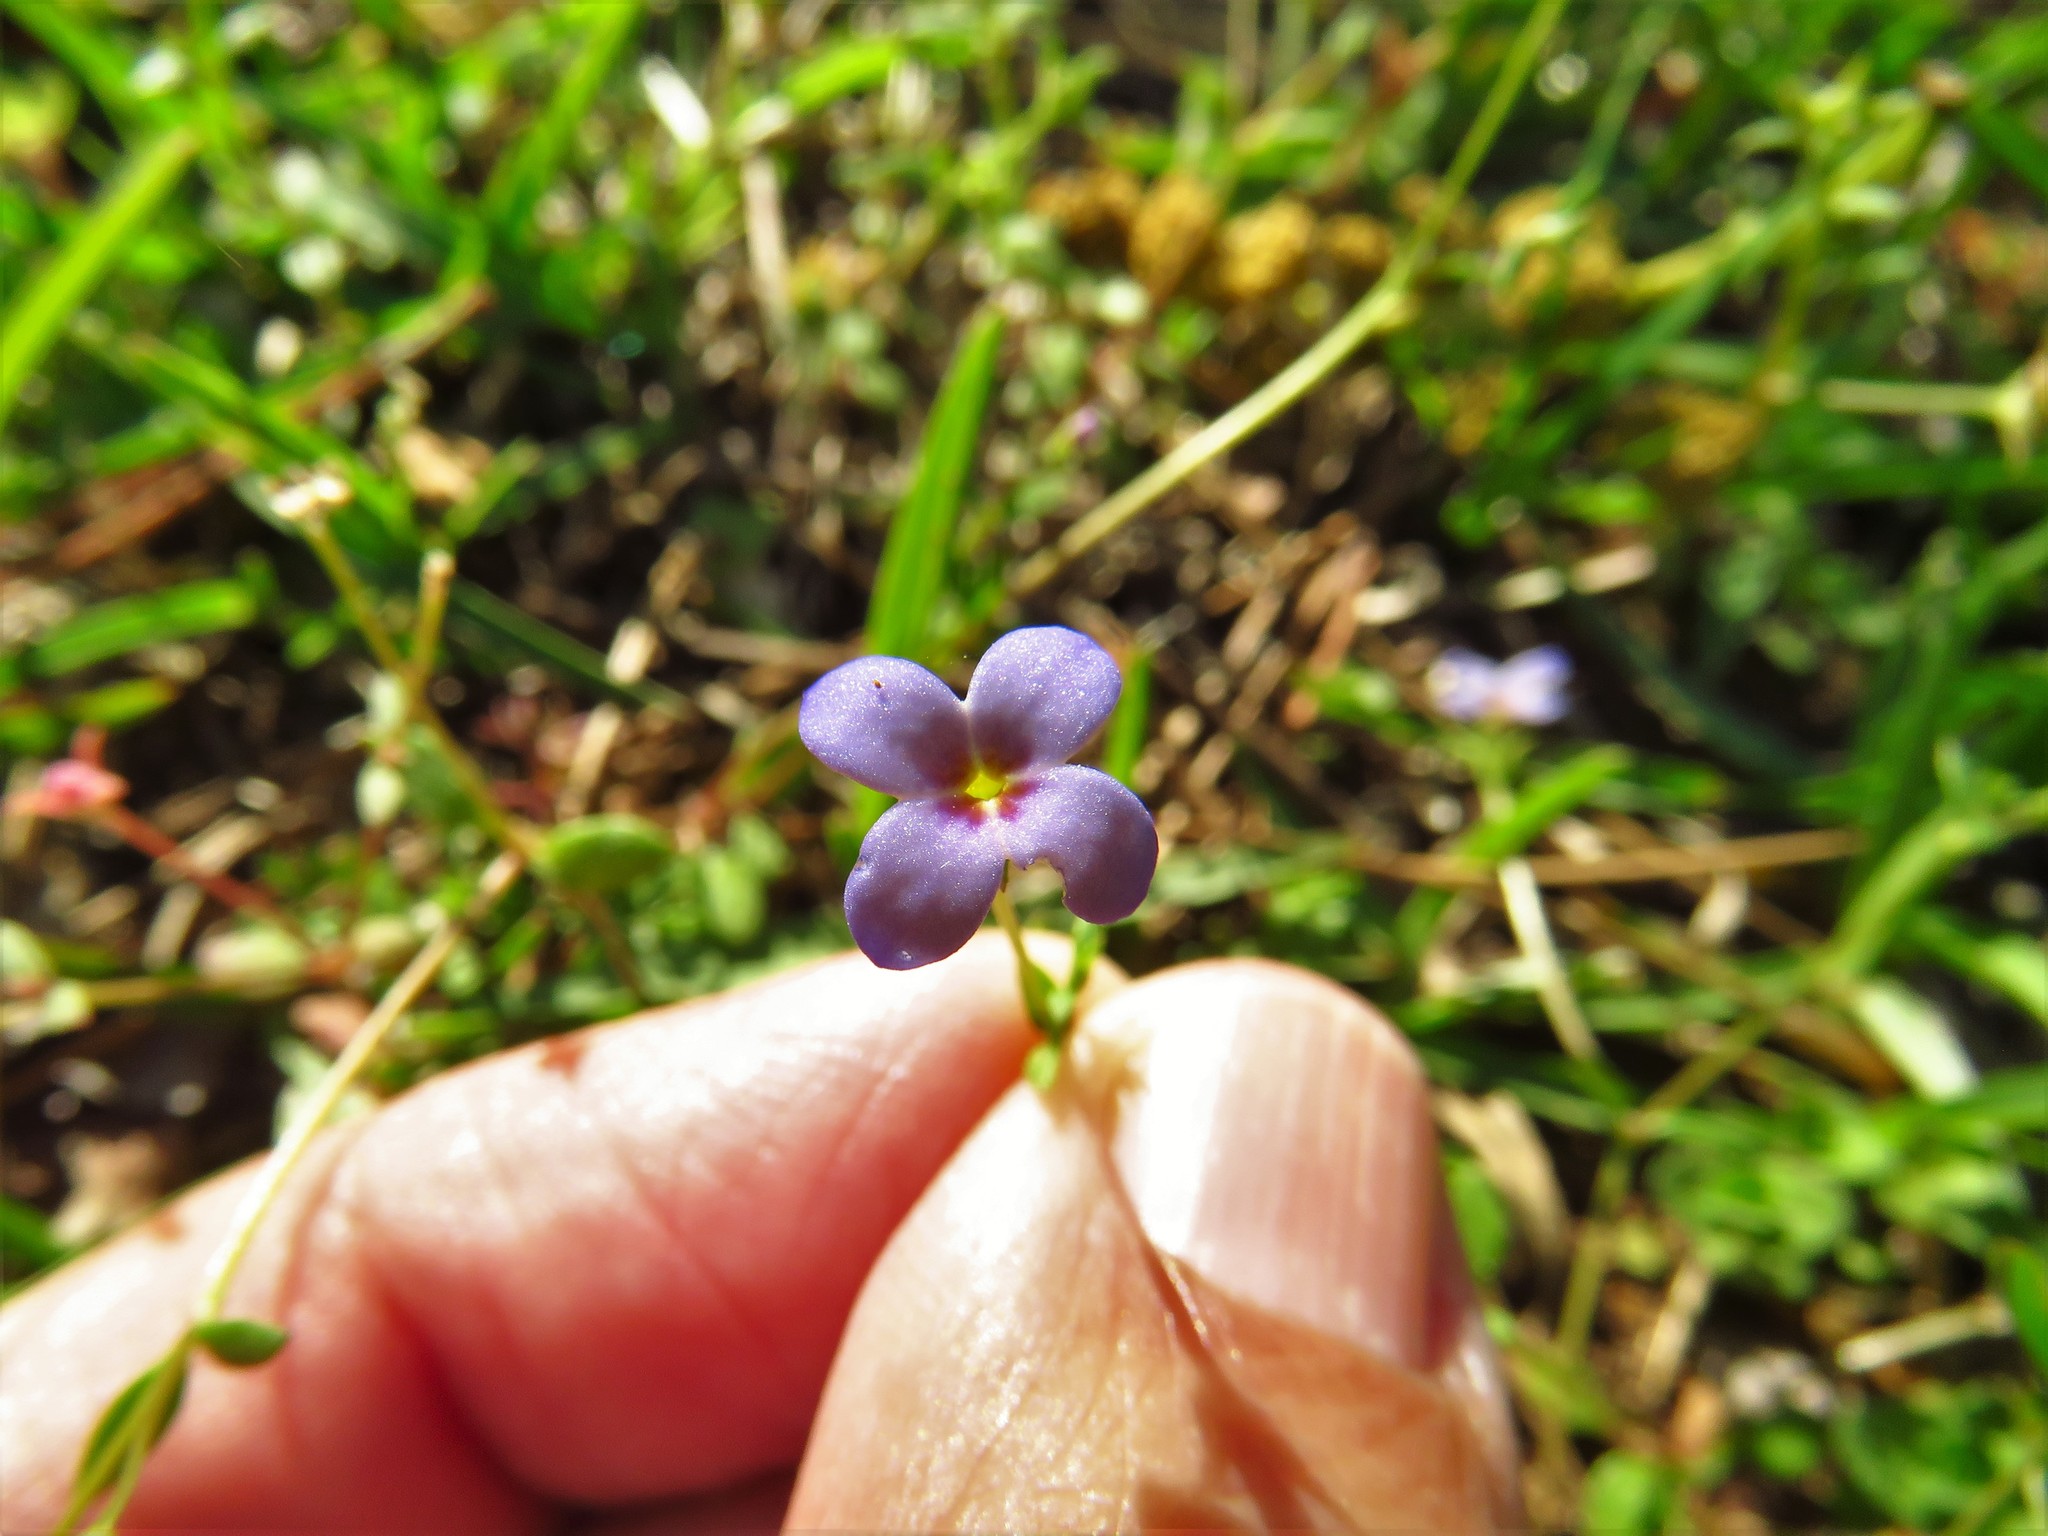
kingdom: Plantae
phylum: Tracheophyta
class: Magnoliopsida
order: Gentianales
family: Rubiaceae
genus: Houstonia
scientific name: Houstonia pusilla
